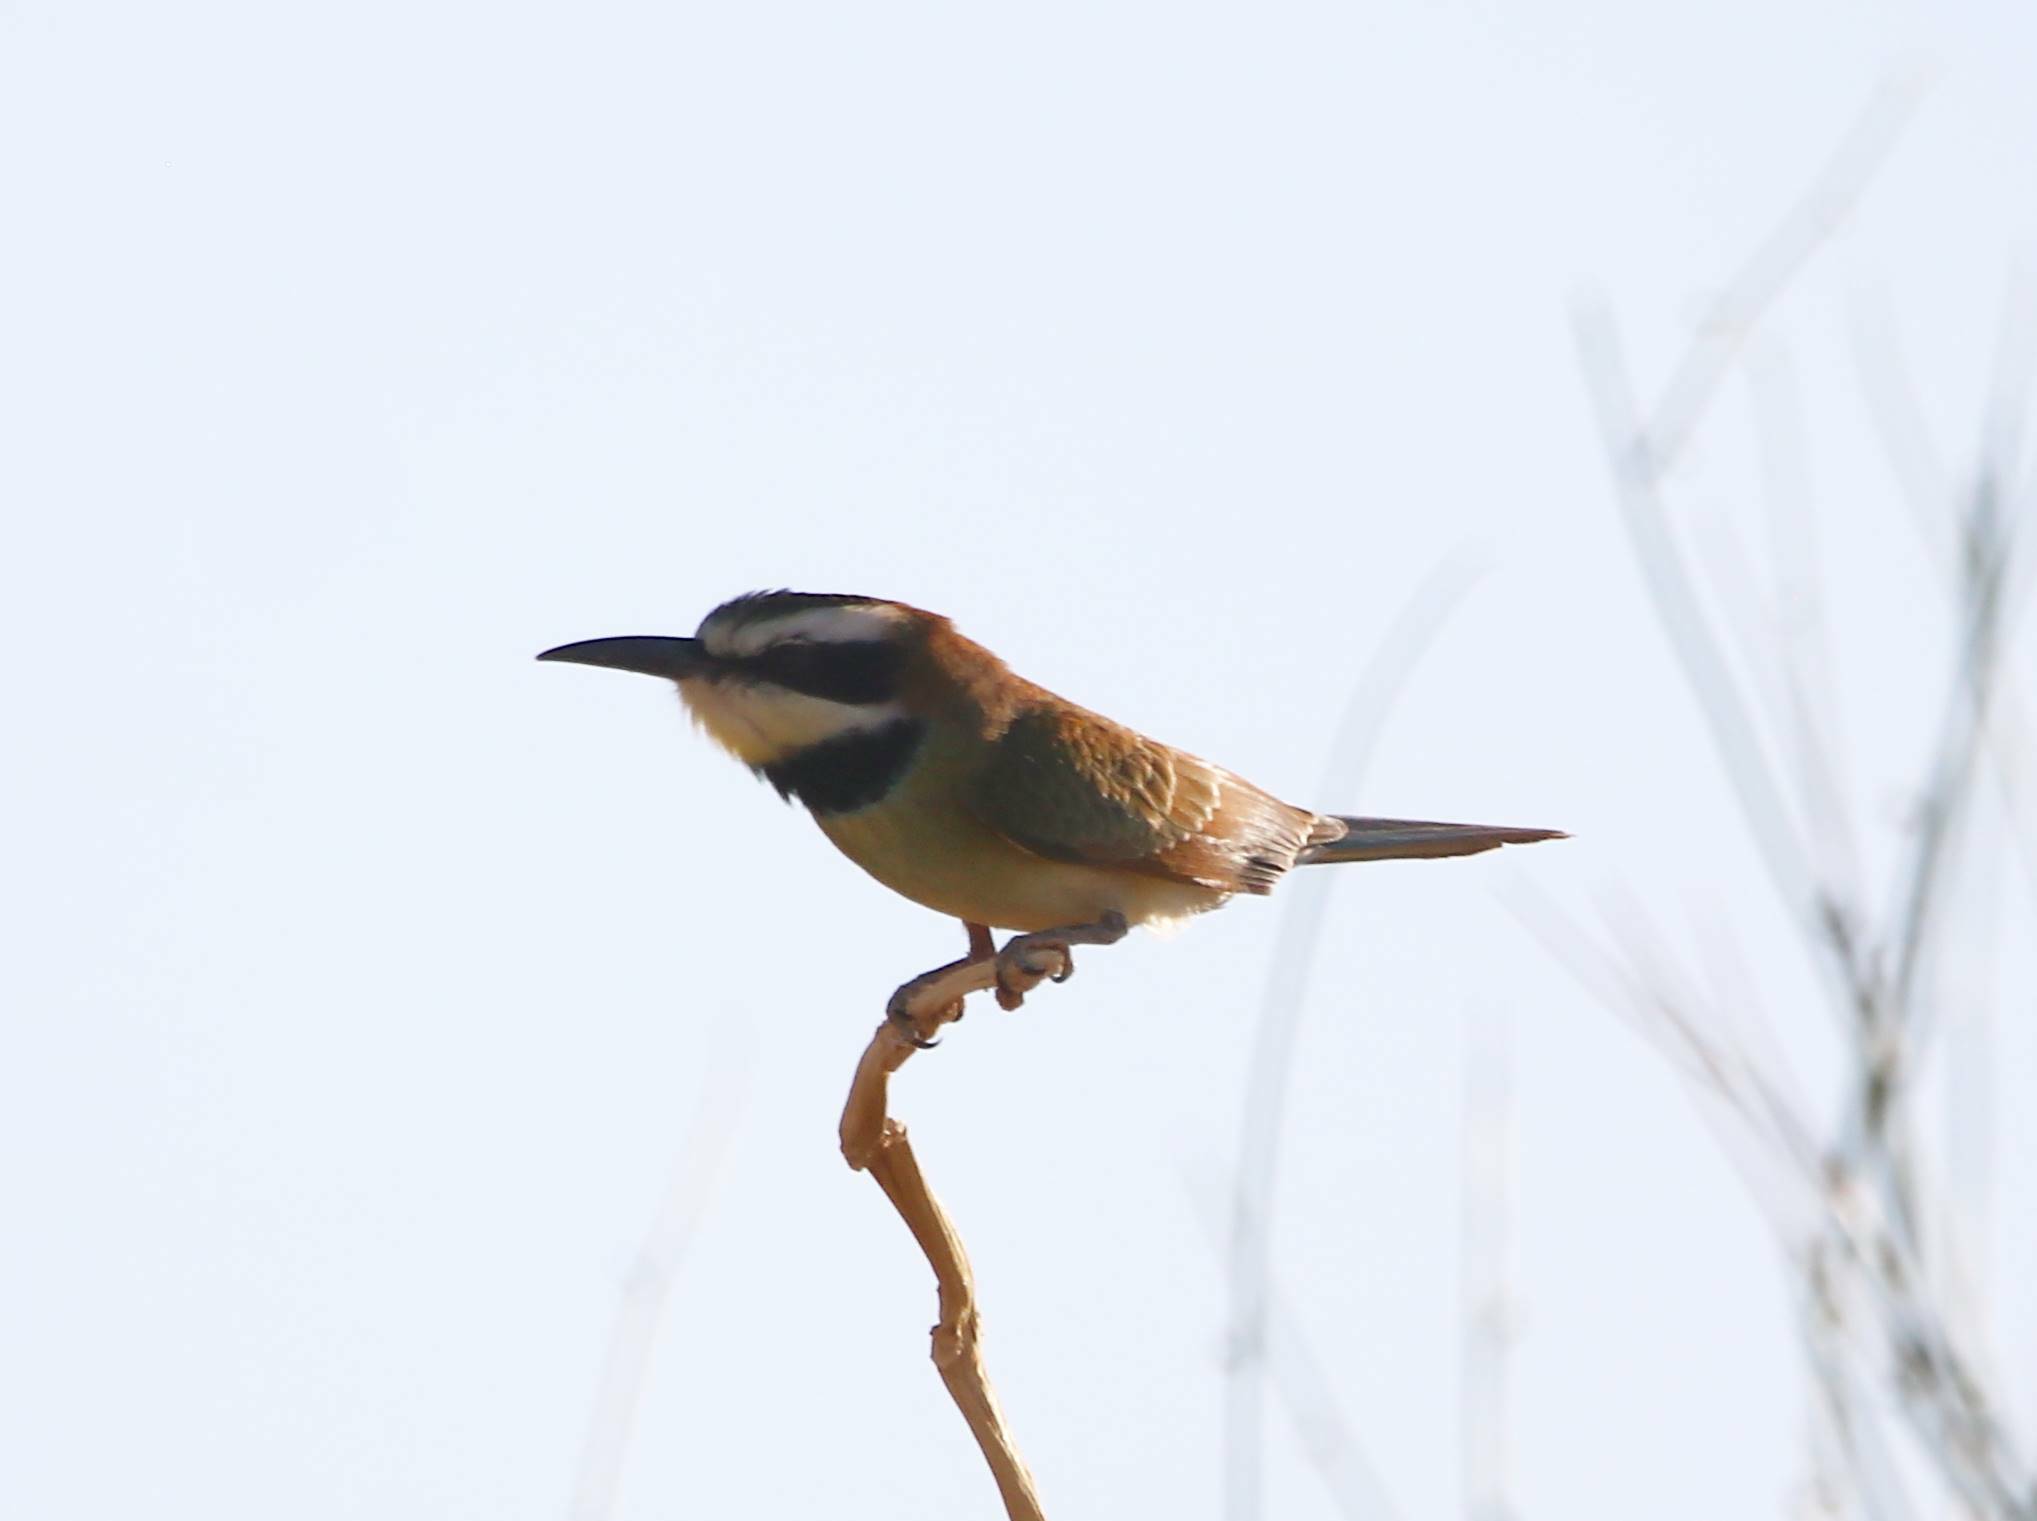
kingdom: Animalia
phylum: Chordata
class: Aves
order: Coraciiformes
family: Meropidae
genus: Merops
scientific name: Merops albicollis
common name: White-throated bee-eater
